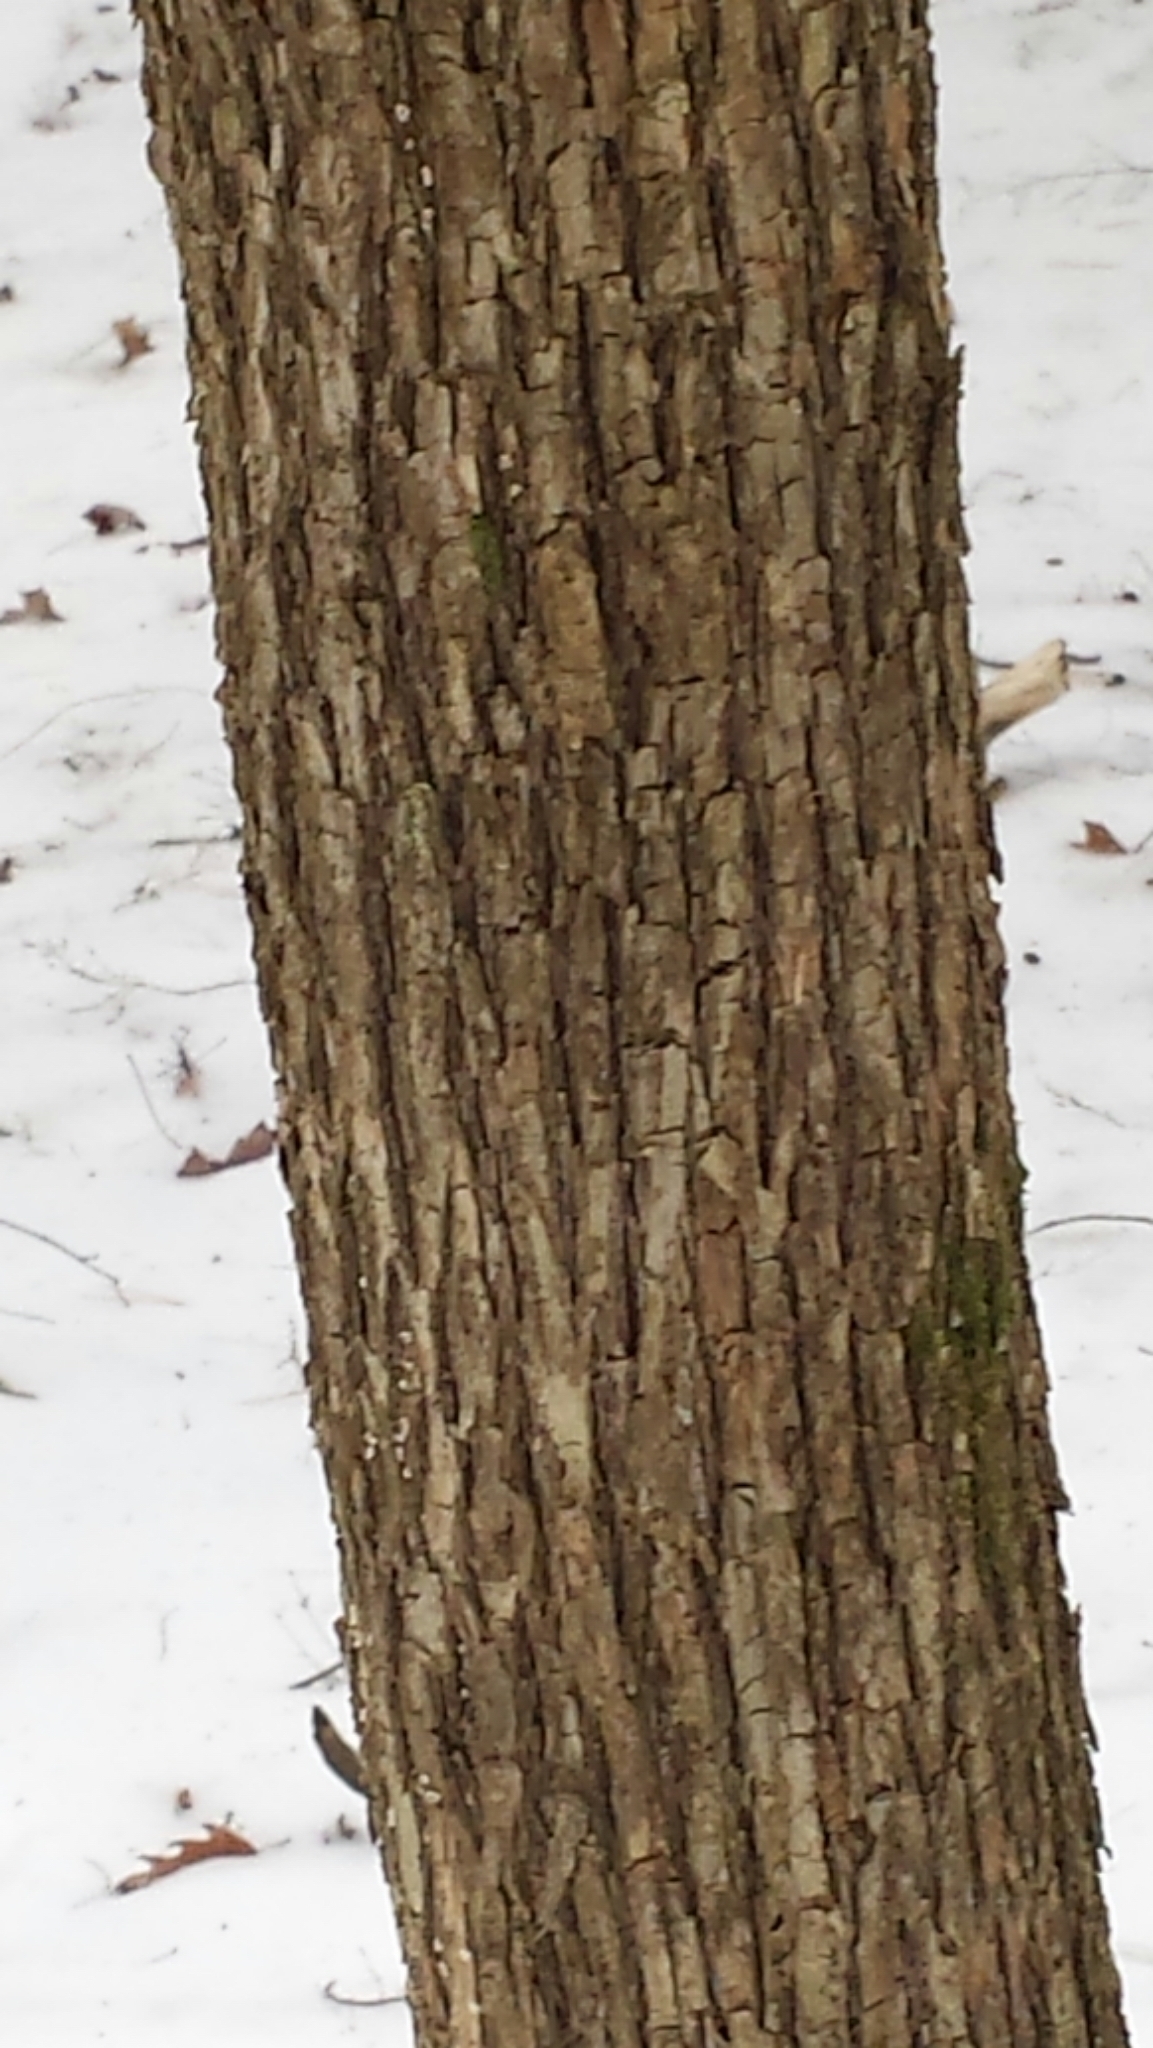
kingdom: Plantae
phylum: Tracheophyta
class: Magnoliopsida
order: Fagales
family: Betulaceae
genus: Ostrya
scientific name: Ostrya virginiana
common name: Ironwood
